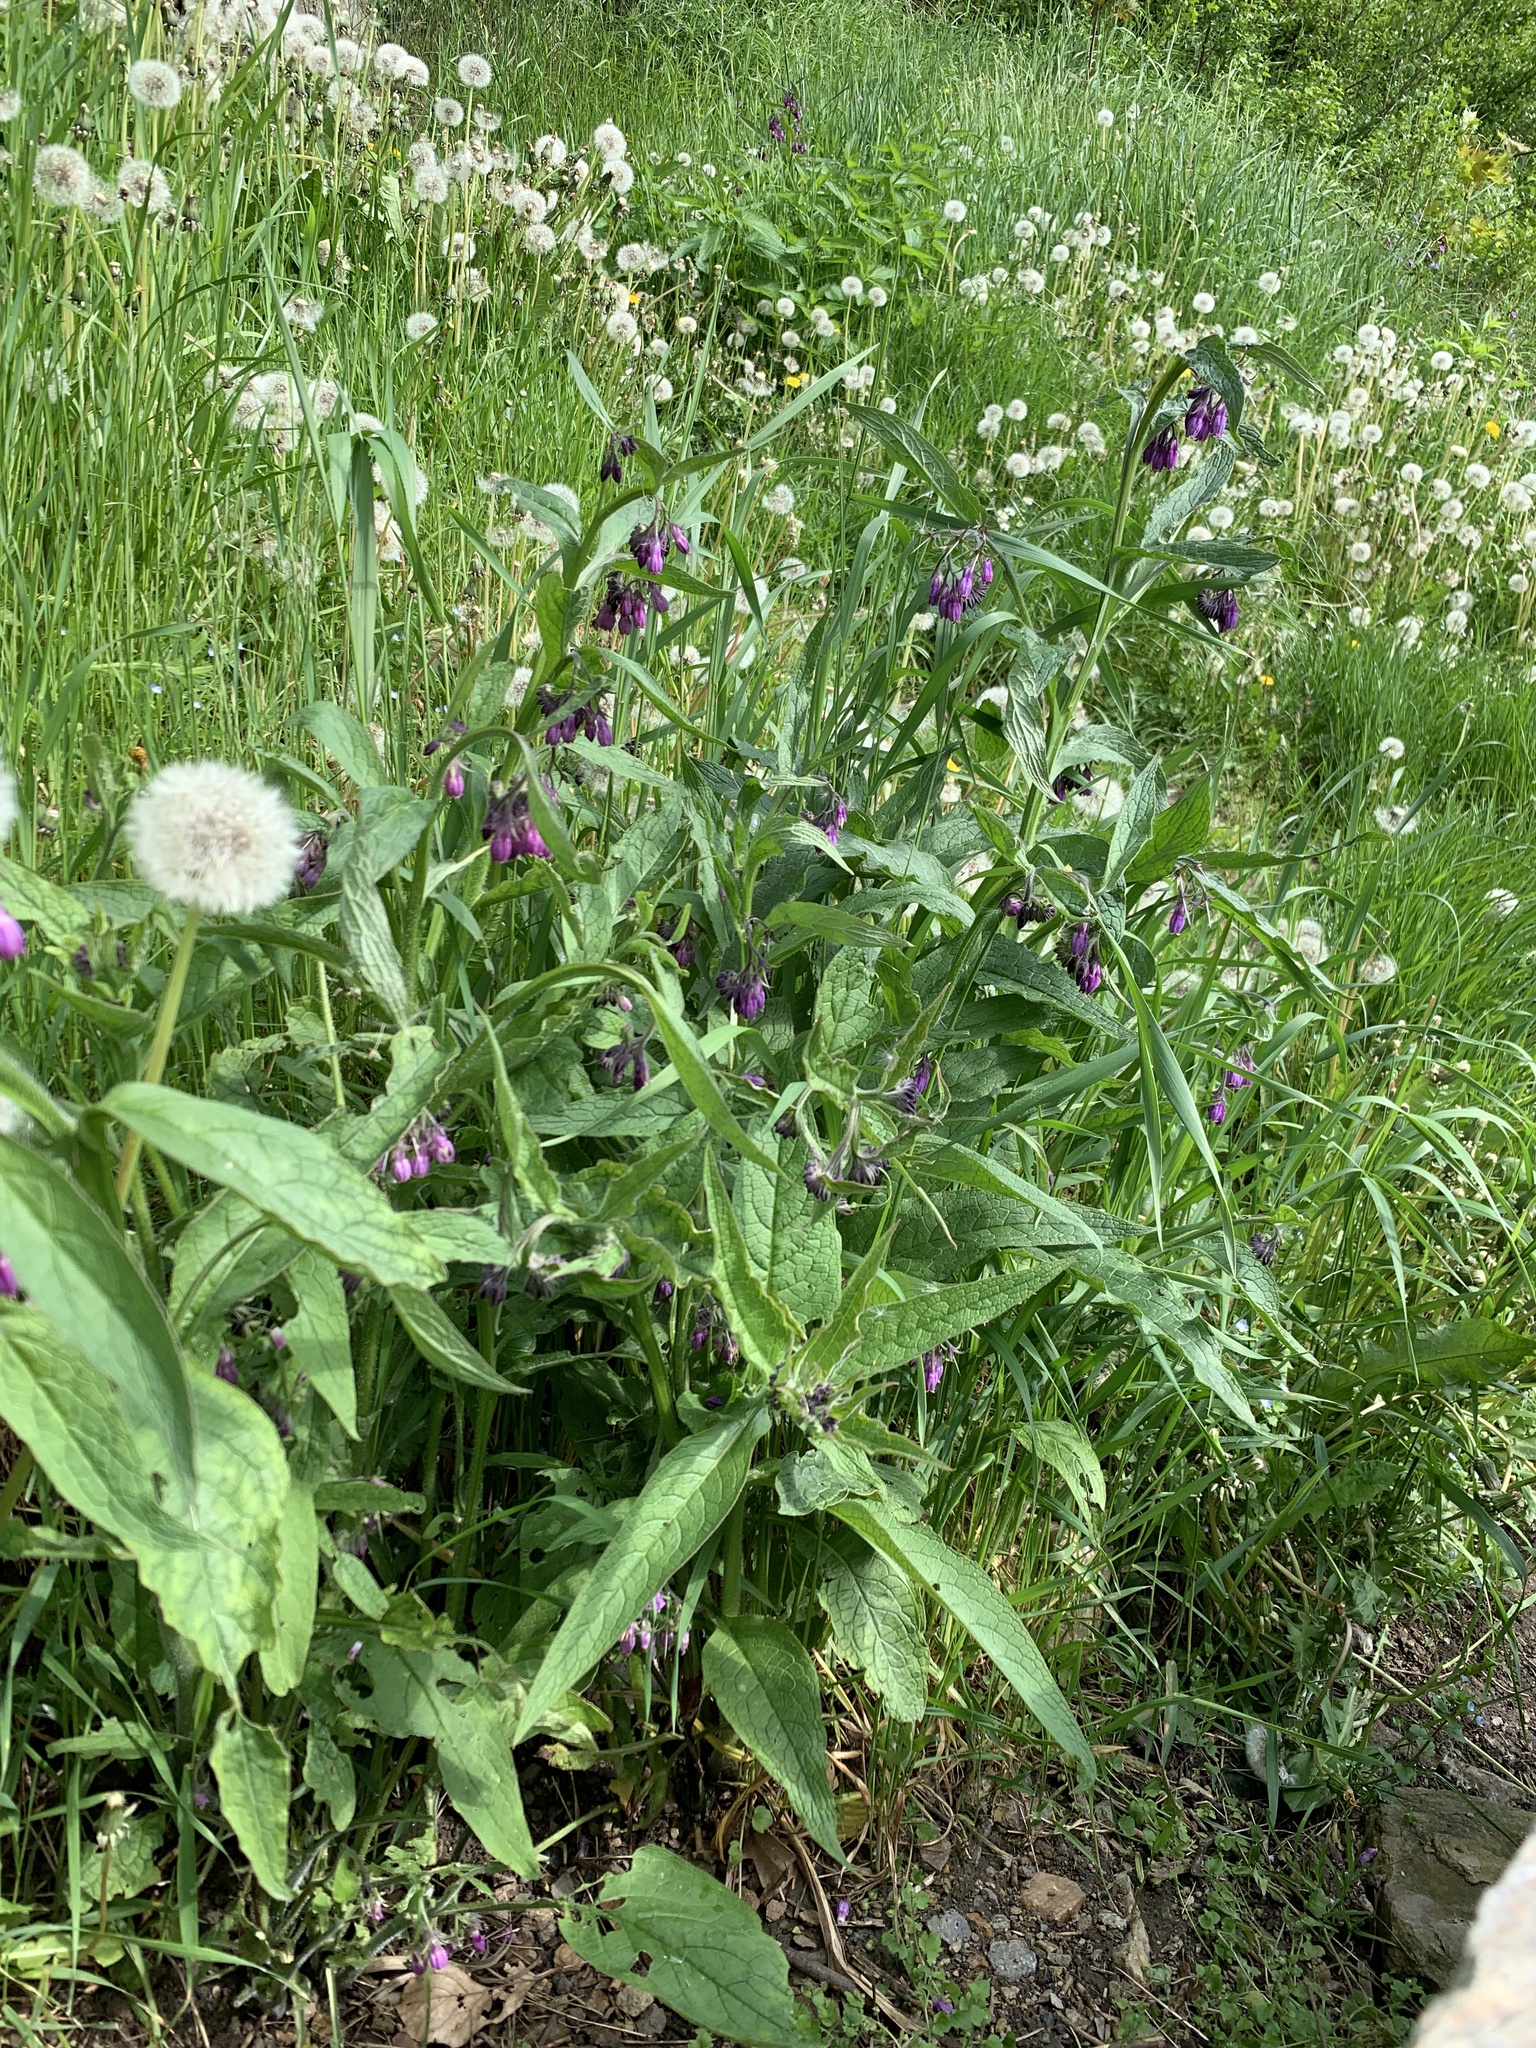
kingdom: Plantae
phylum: Tracheophyta
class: Magnoliopsida
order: Boraginales
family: Boraginaceae
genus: Symphytum
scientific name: Symphytum officinale
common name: Common comfrey
